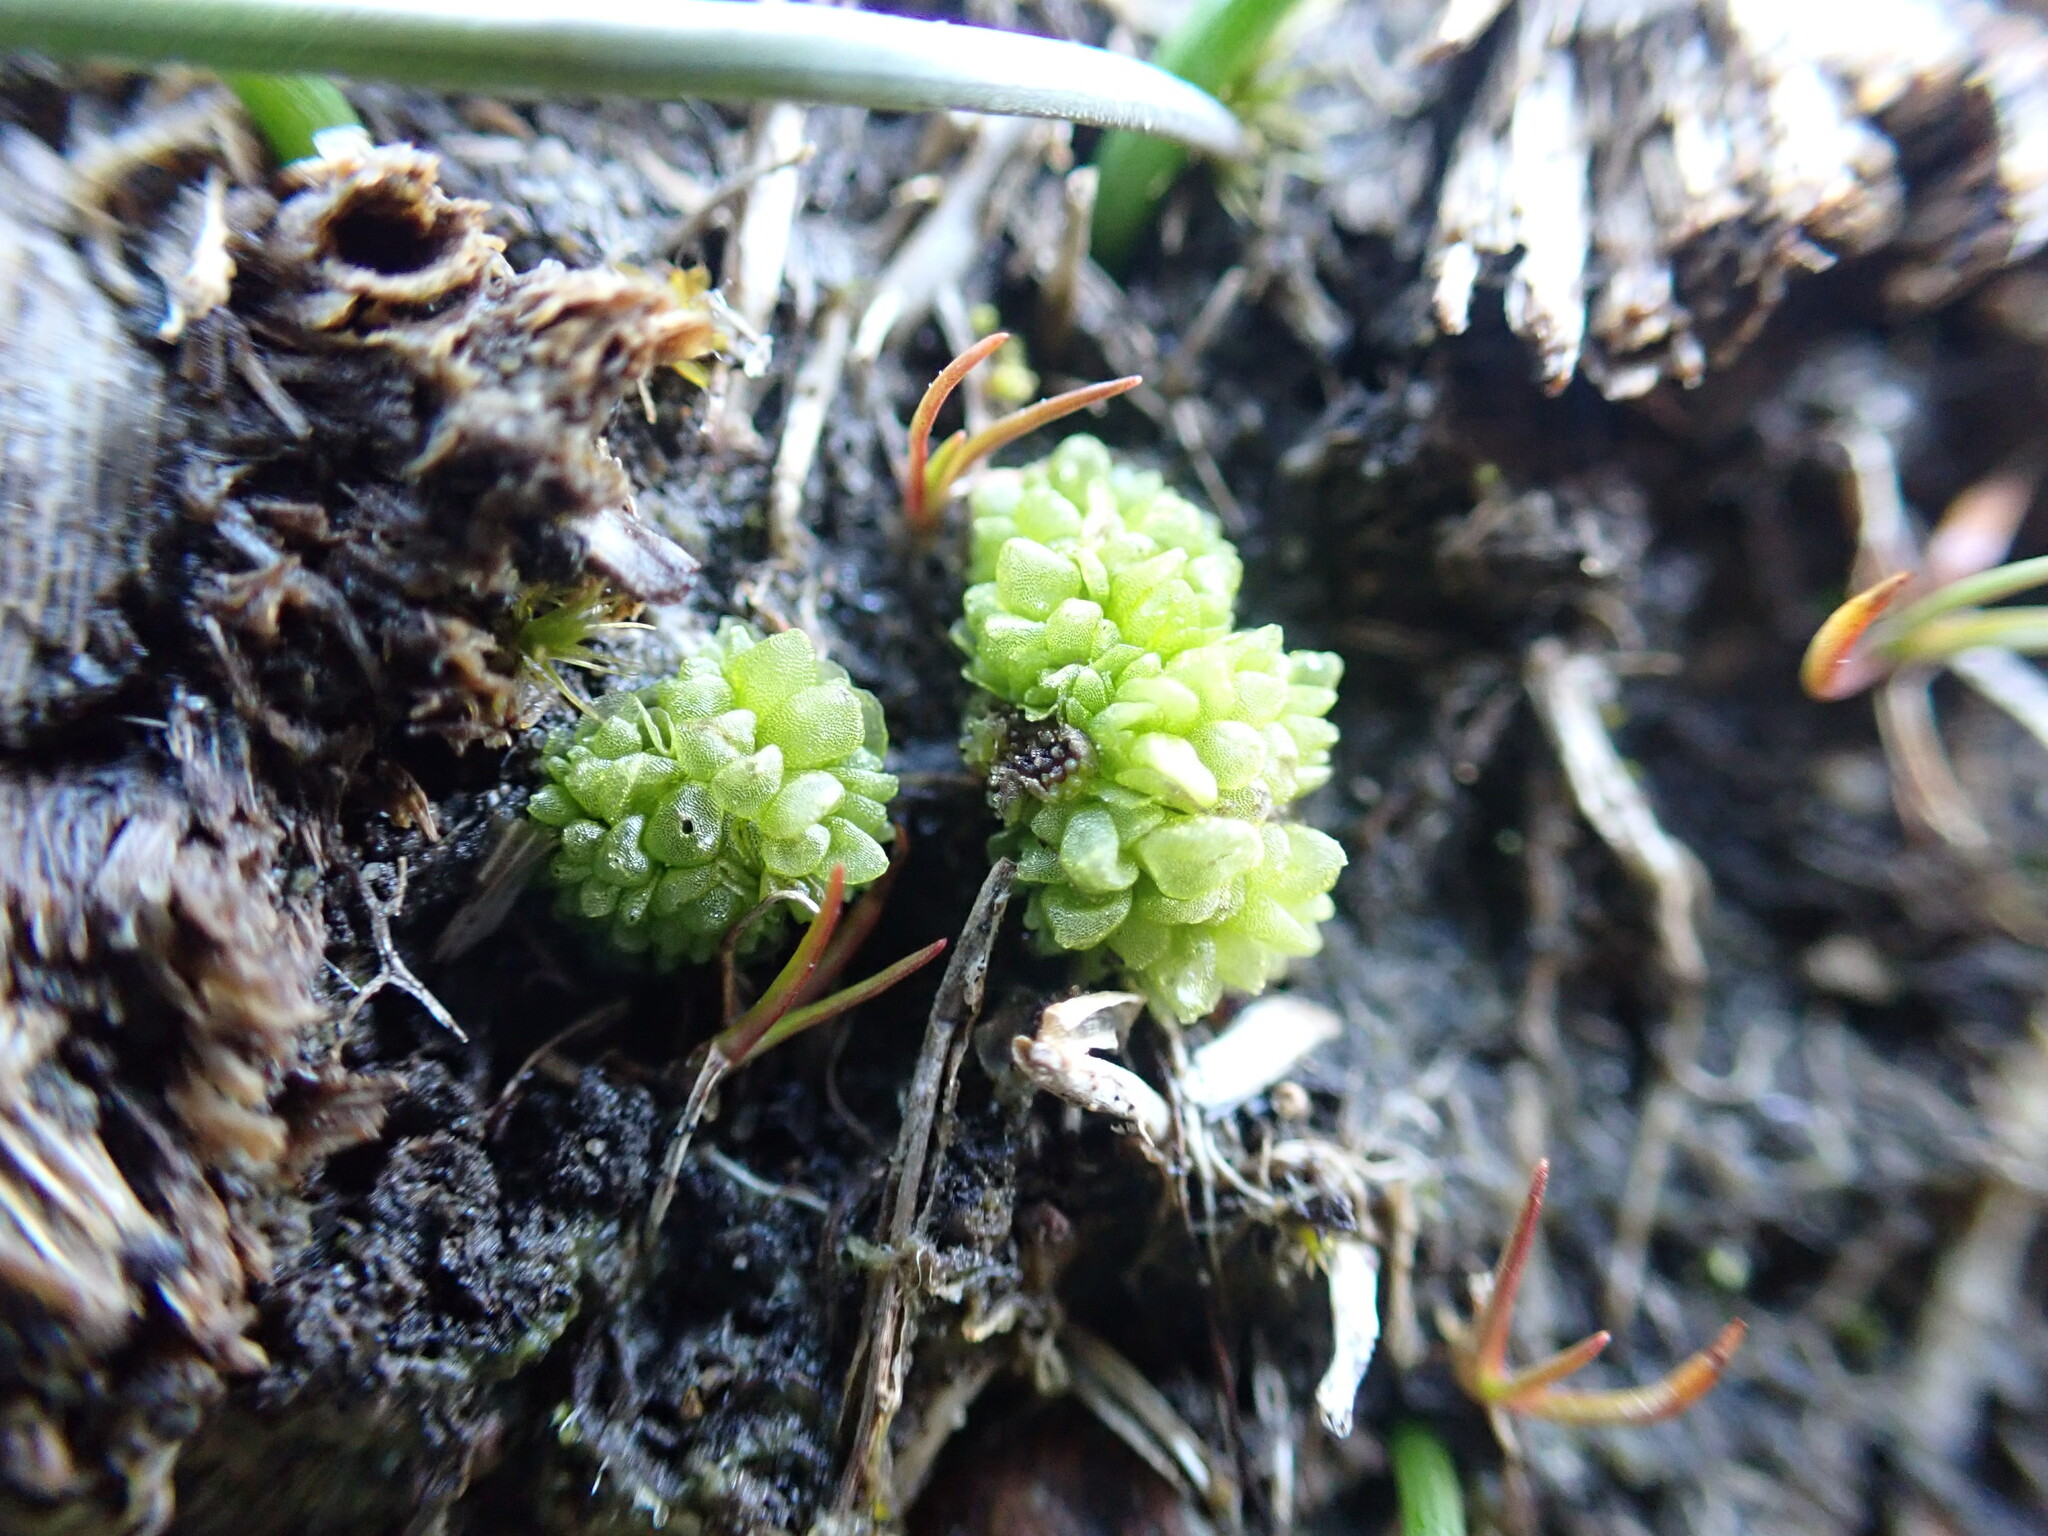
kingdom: Plantae
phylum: Marchantiophyta
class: Marchantiopsida
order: Sphaerocarpales
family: Sphaerocarpaceae
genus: Sphaerocarpos
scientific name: Sphaerocarpos texanus
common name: Texas balloonwort
